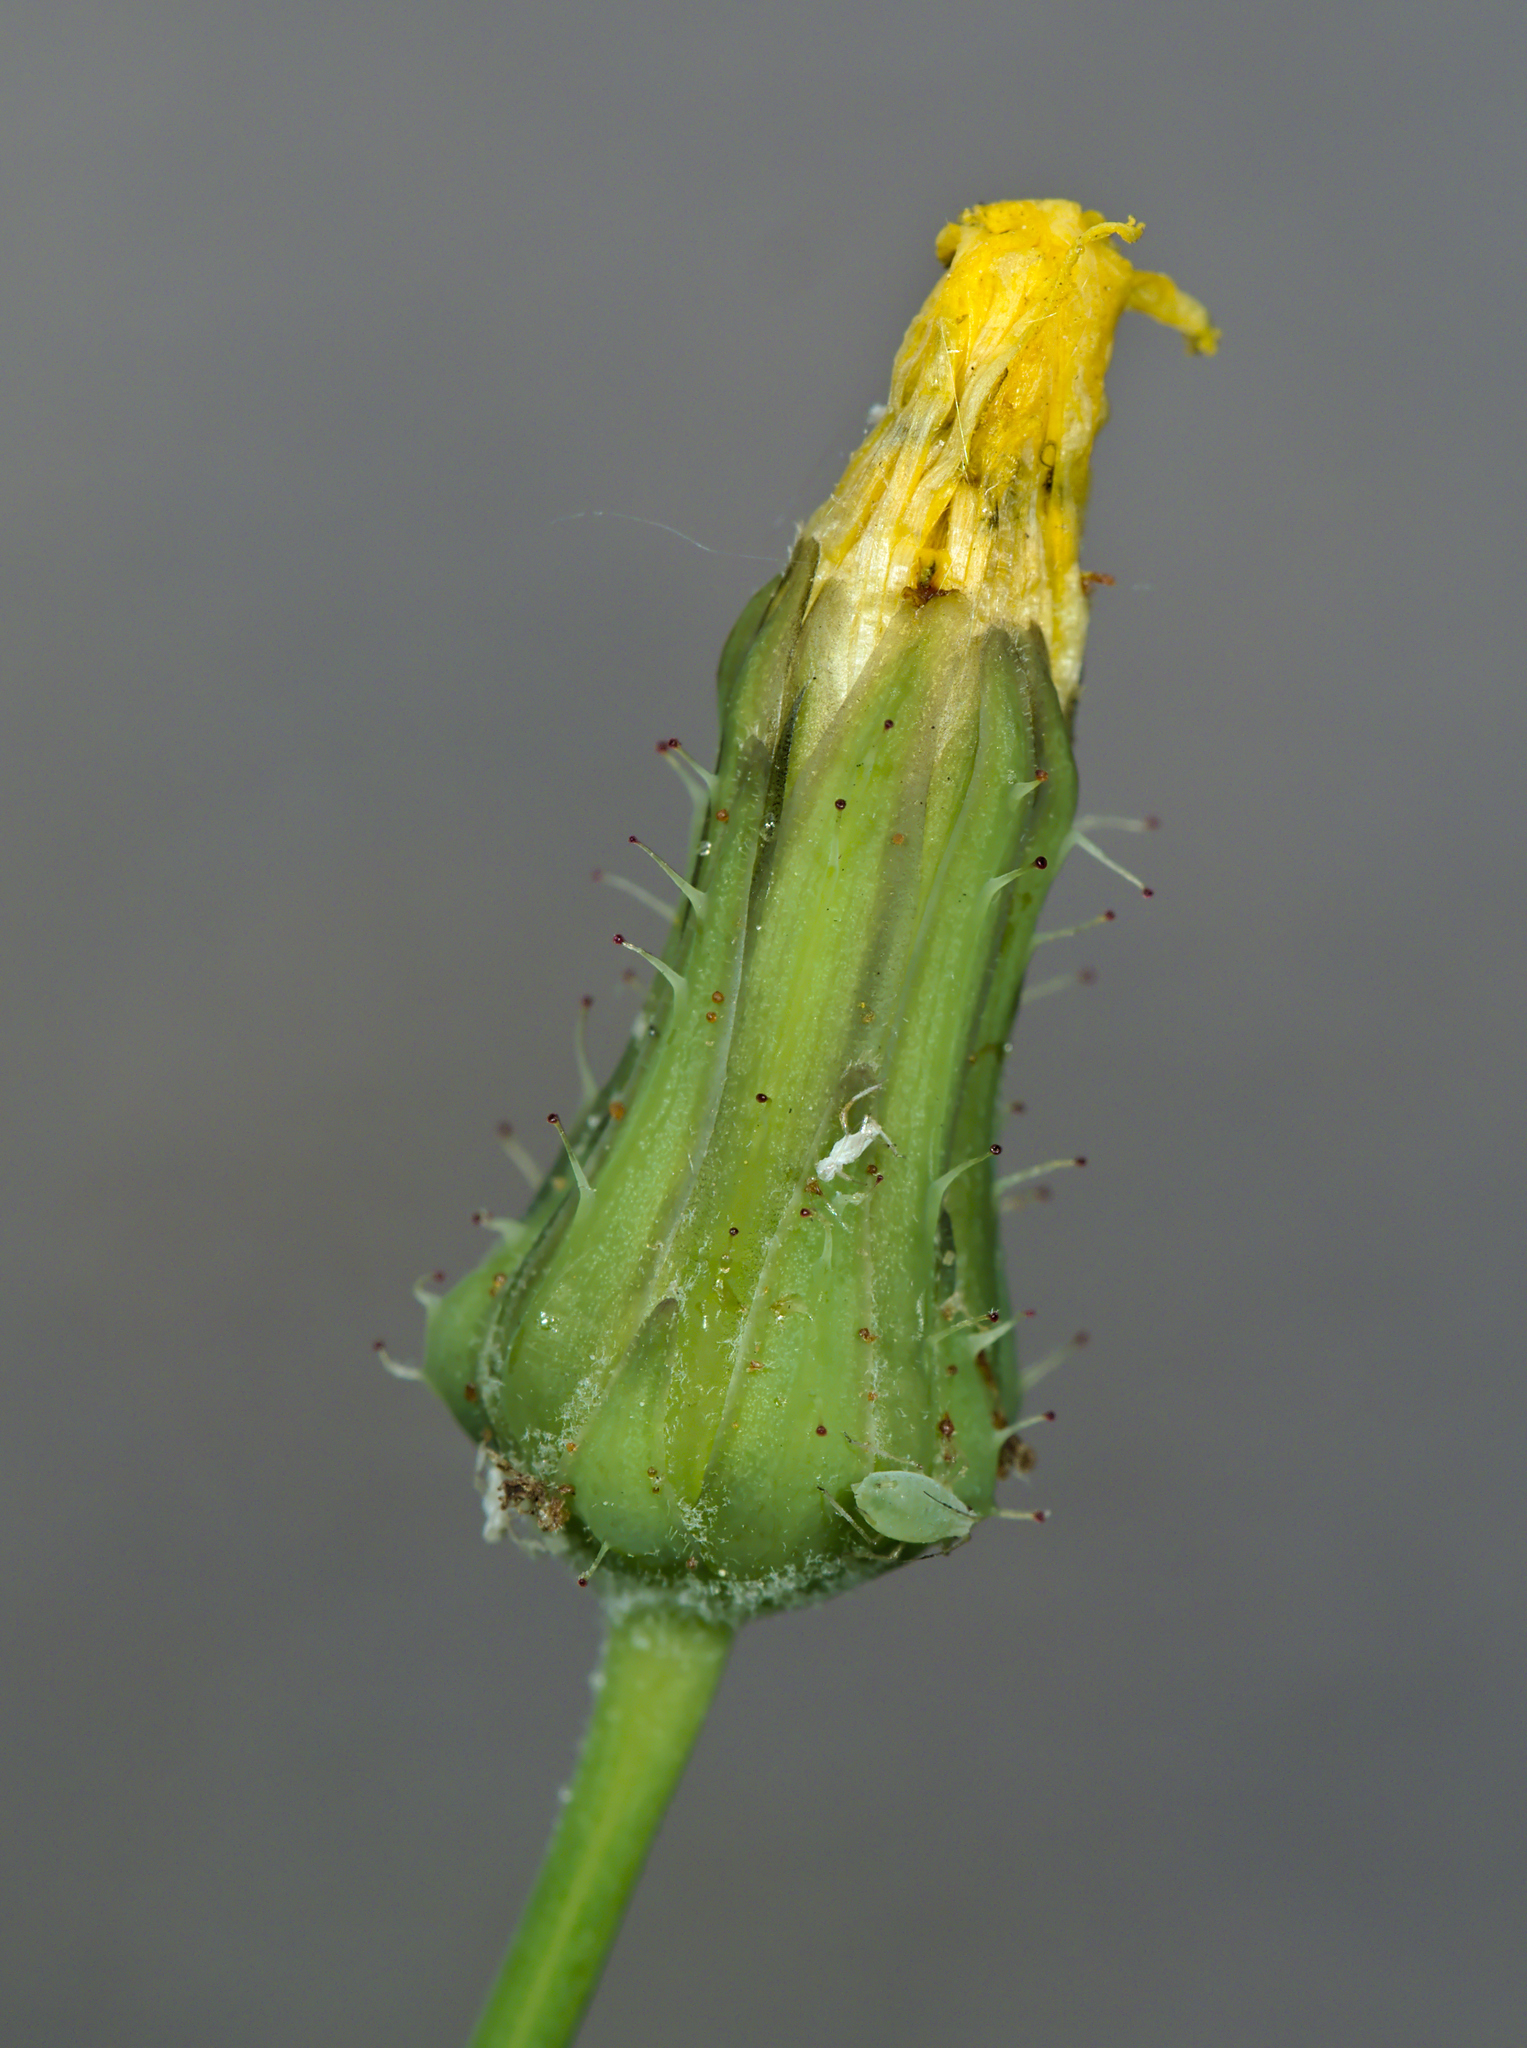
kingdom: Plantae
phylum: Tracheophyta
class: Magnoliopsida
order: Asterales
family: Asteraceae
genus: Sonchus
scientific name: Sonchus oleraceus
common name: Common sowthistle
